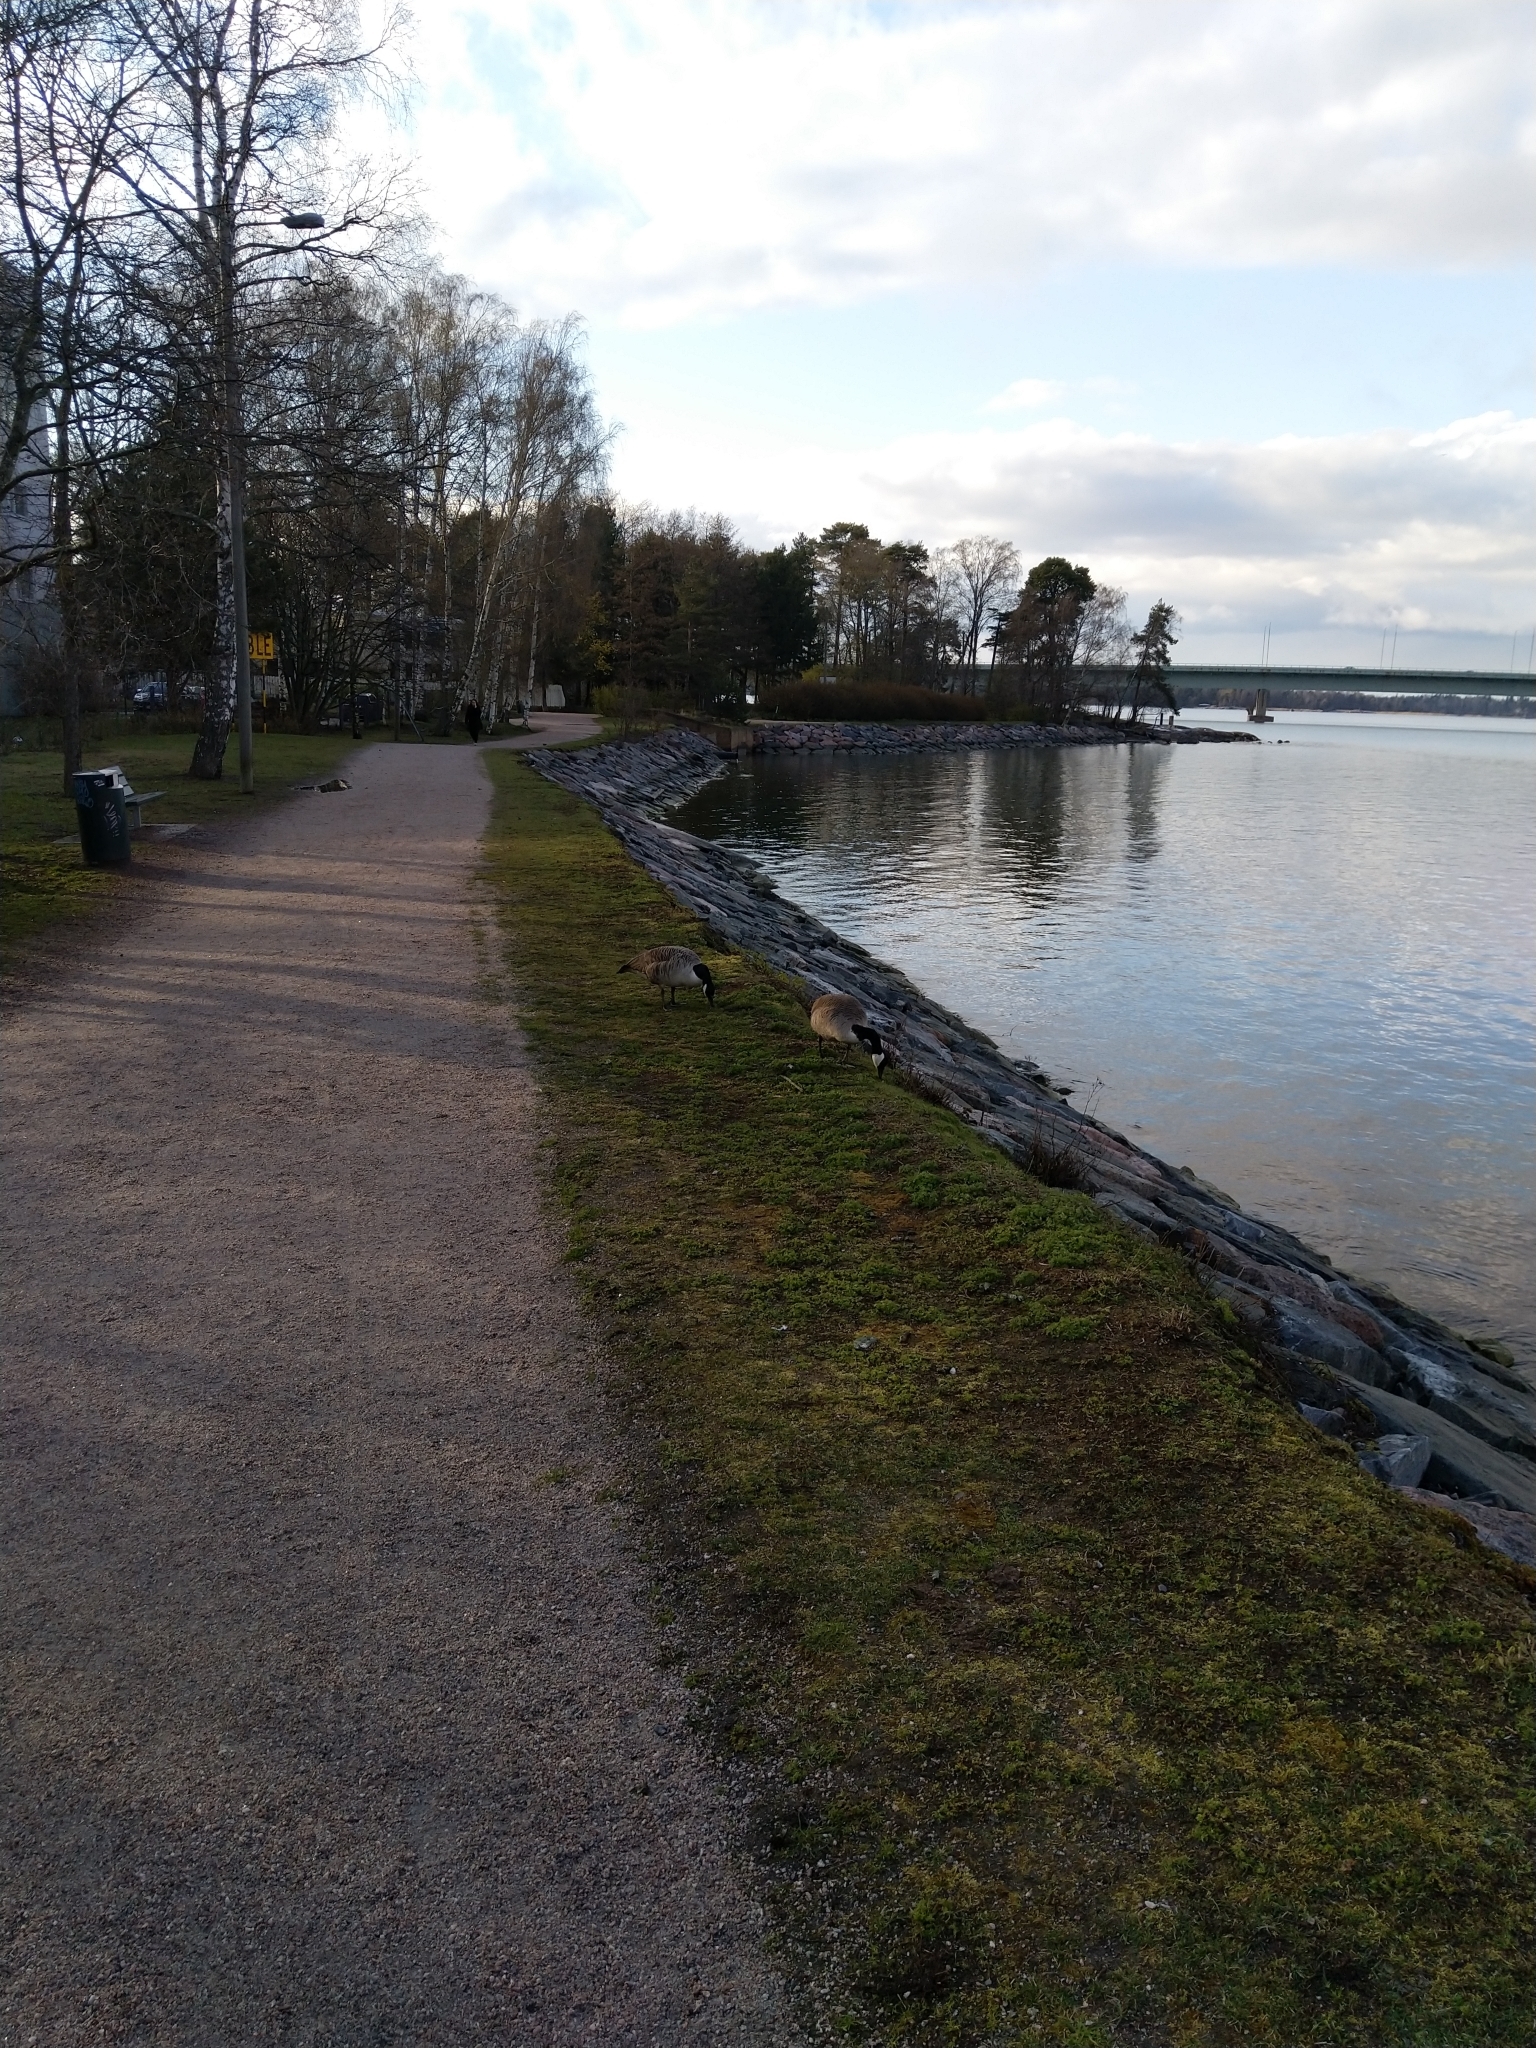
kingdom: Animalia
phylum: Chordata
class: Aves
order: Anseriformes
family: Anatidae
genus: Branta
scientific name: Branta canadensis
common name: Canada goose
